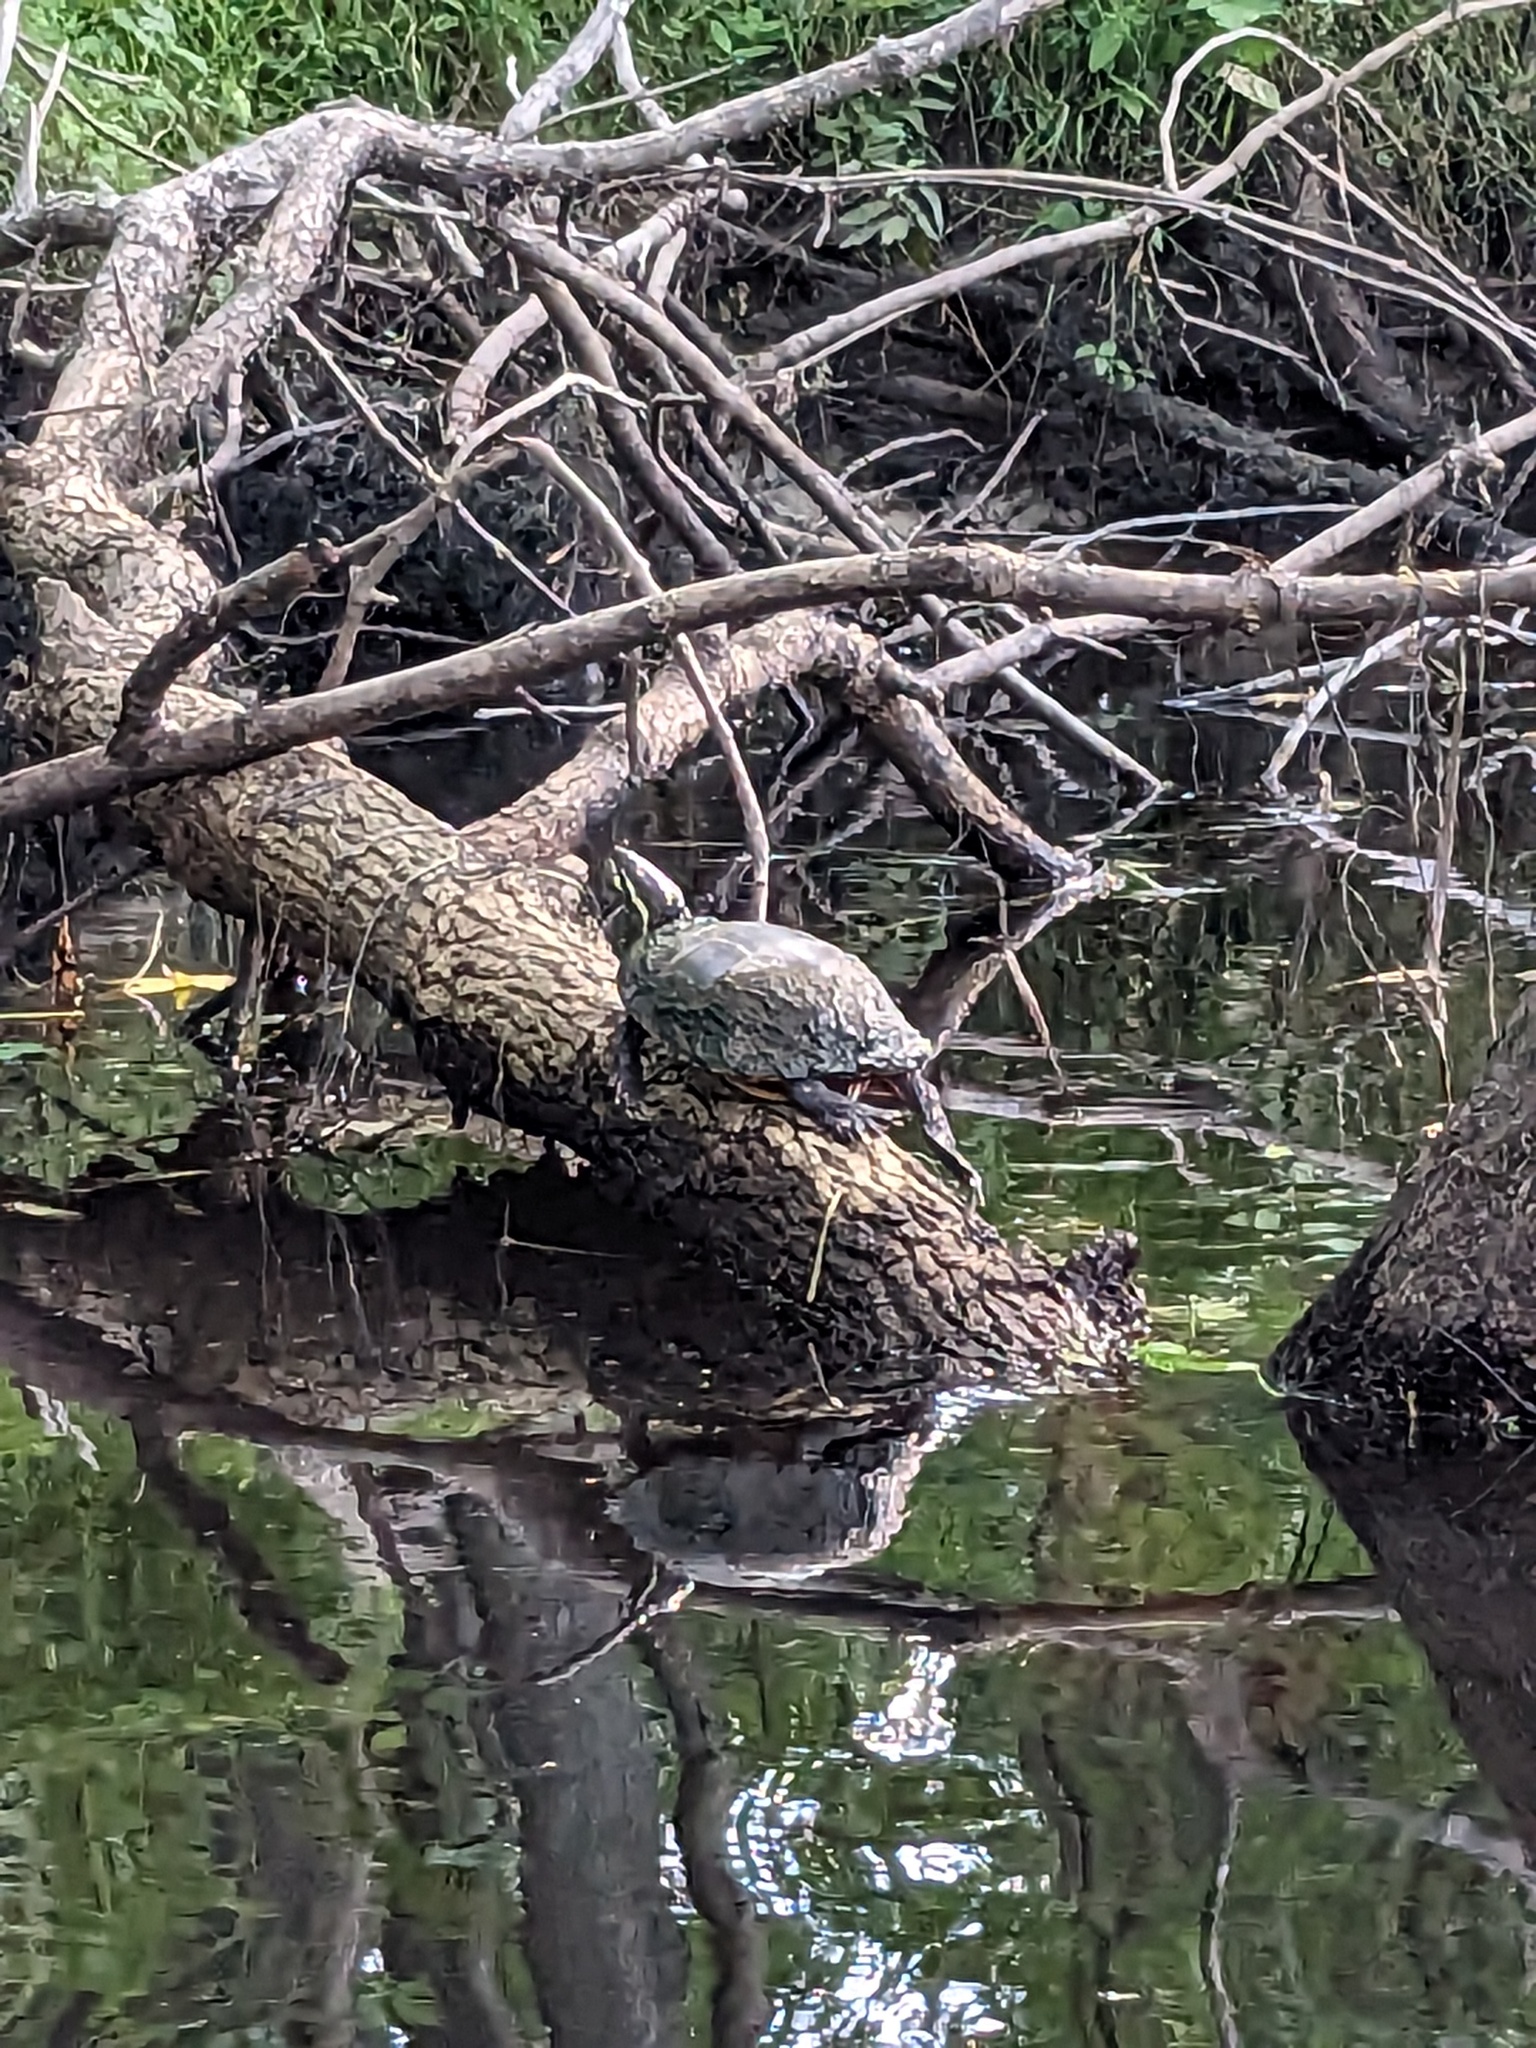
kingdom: Animalia
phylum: Chordata
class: Testudines
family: Emydidae
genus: Chrysemys
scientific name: Chrysemys picta
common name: Painted turtle
